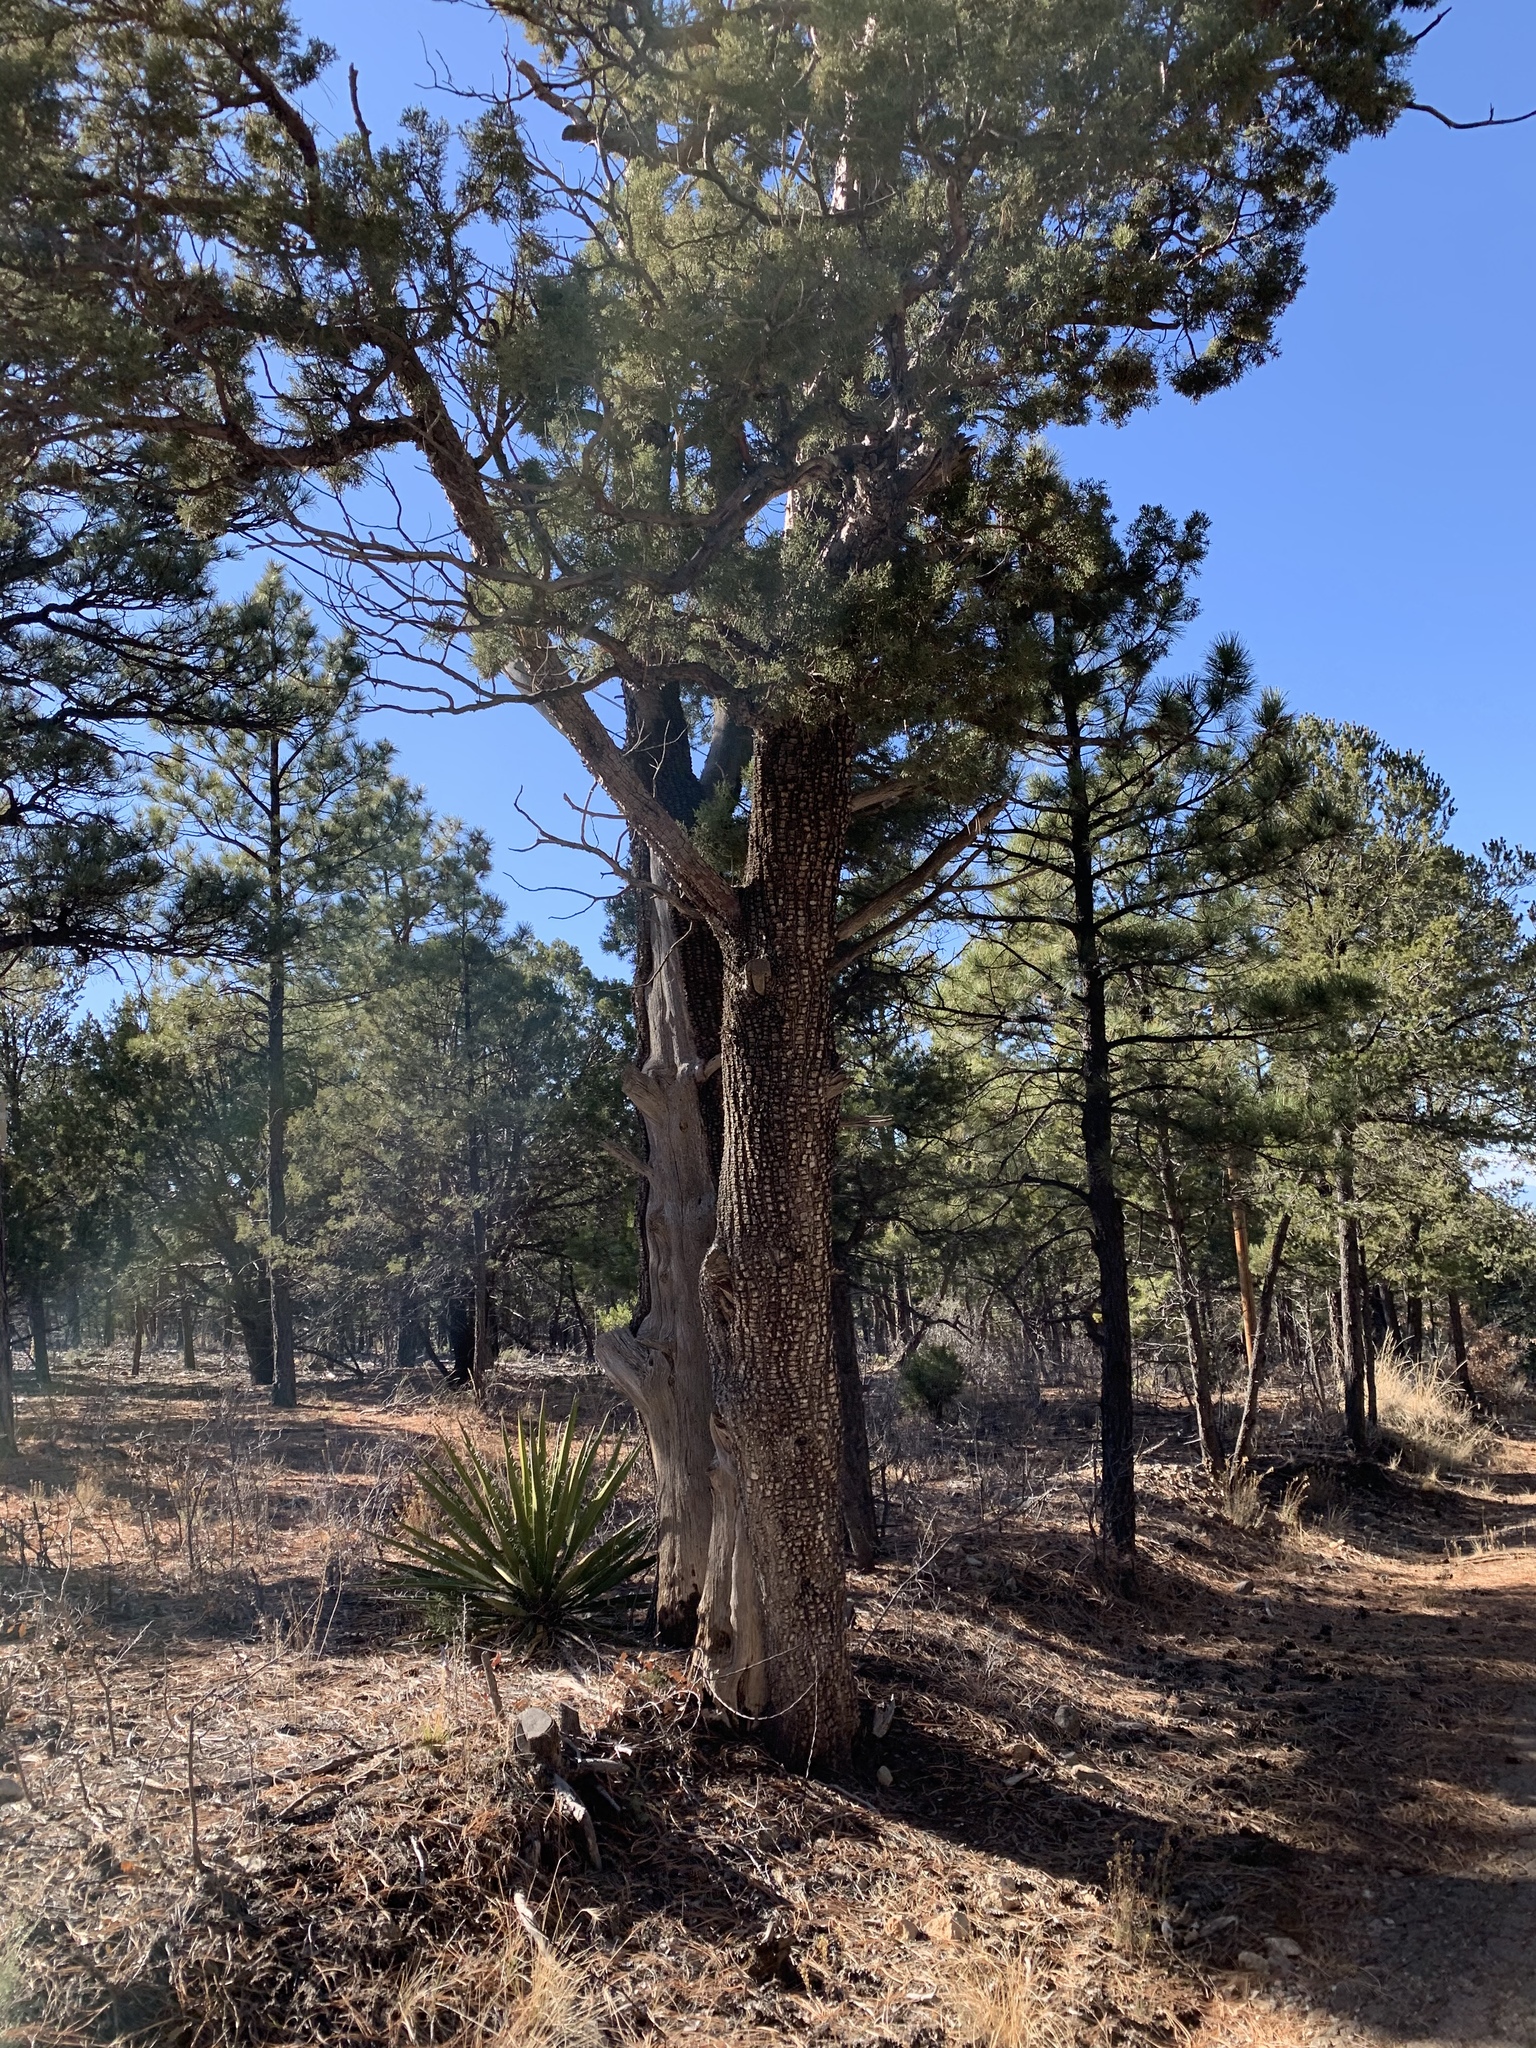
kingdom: Plantae
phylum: Tracheophyta
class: Pinopsida
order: Pinales
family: Cupressaceae
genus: Juniperus
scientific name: Juniperus deppeana
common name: Alligator juniper
